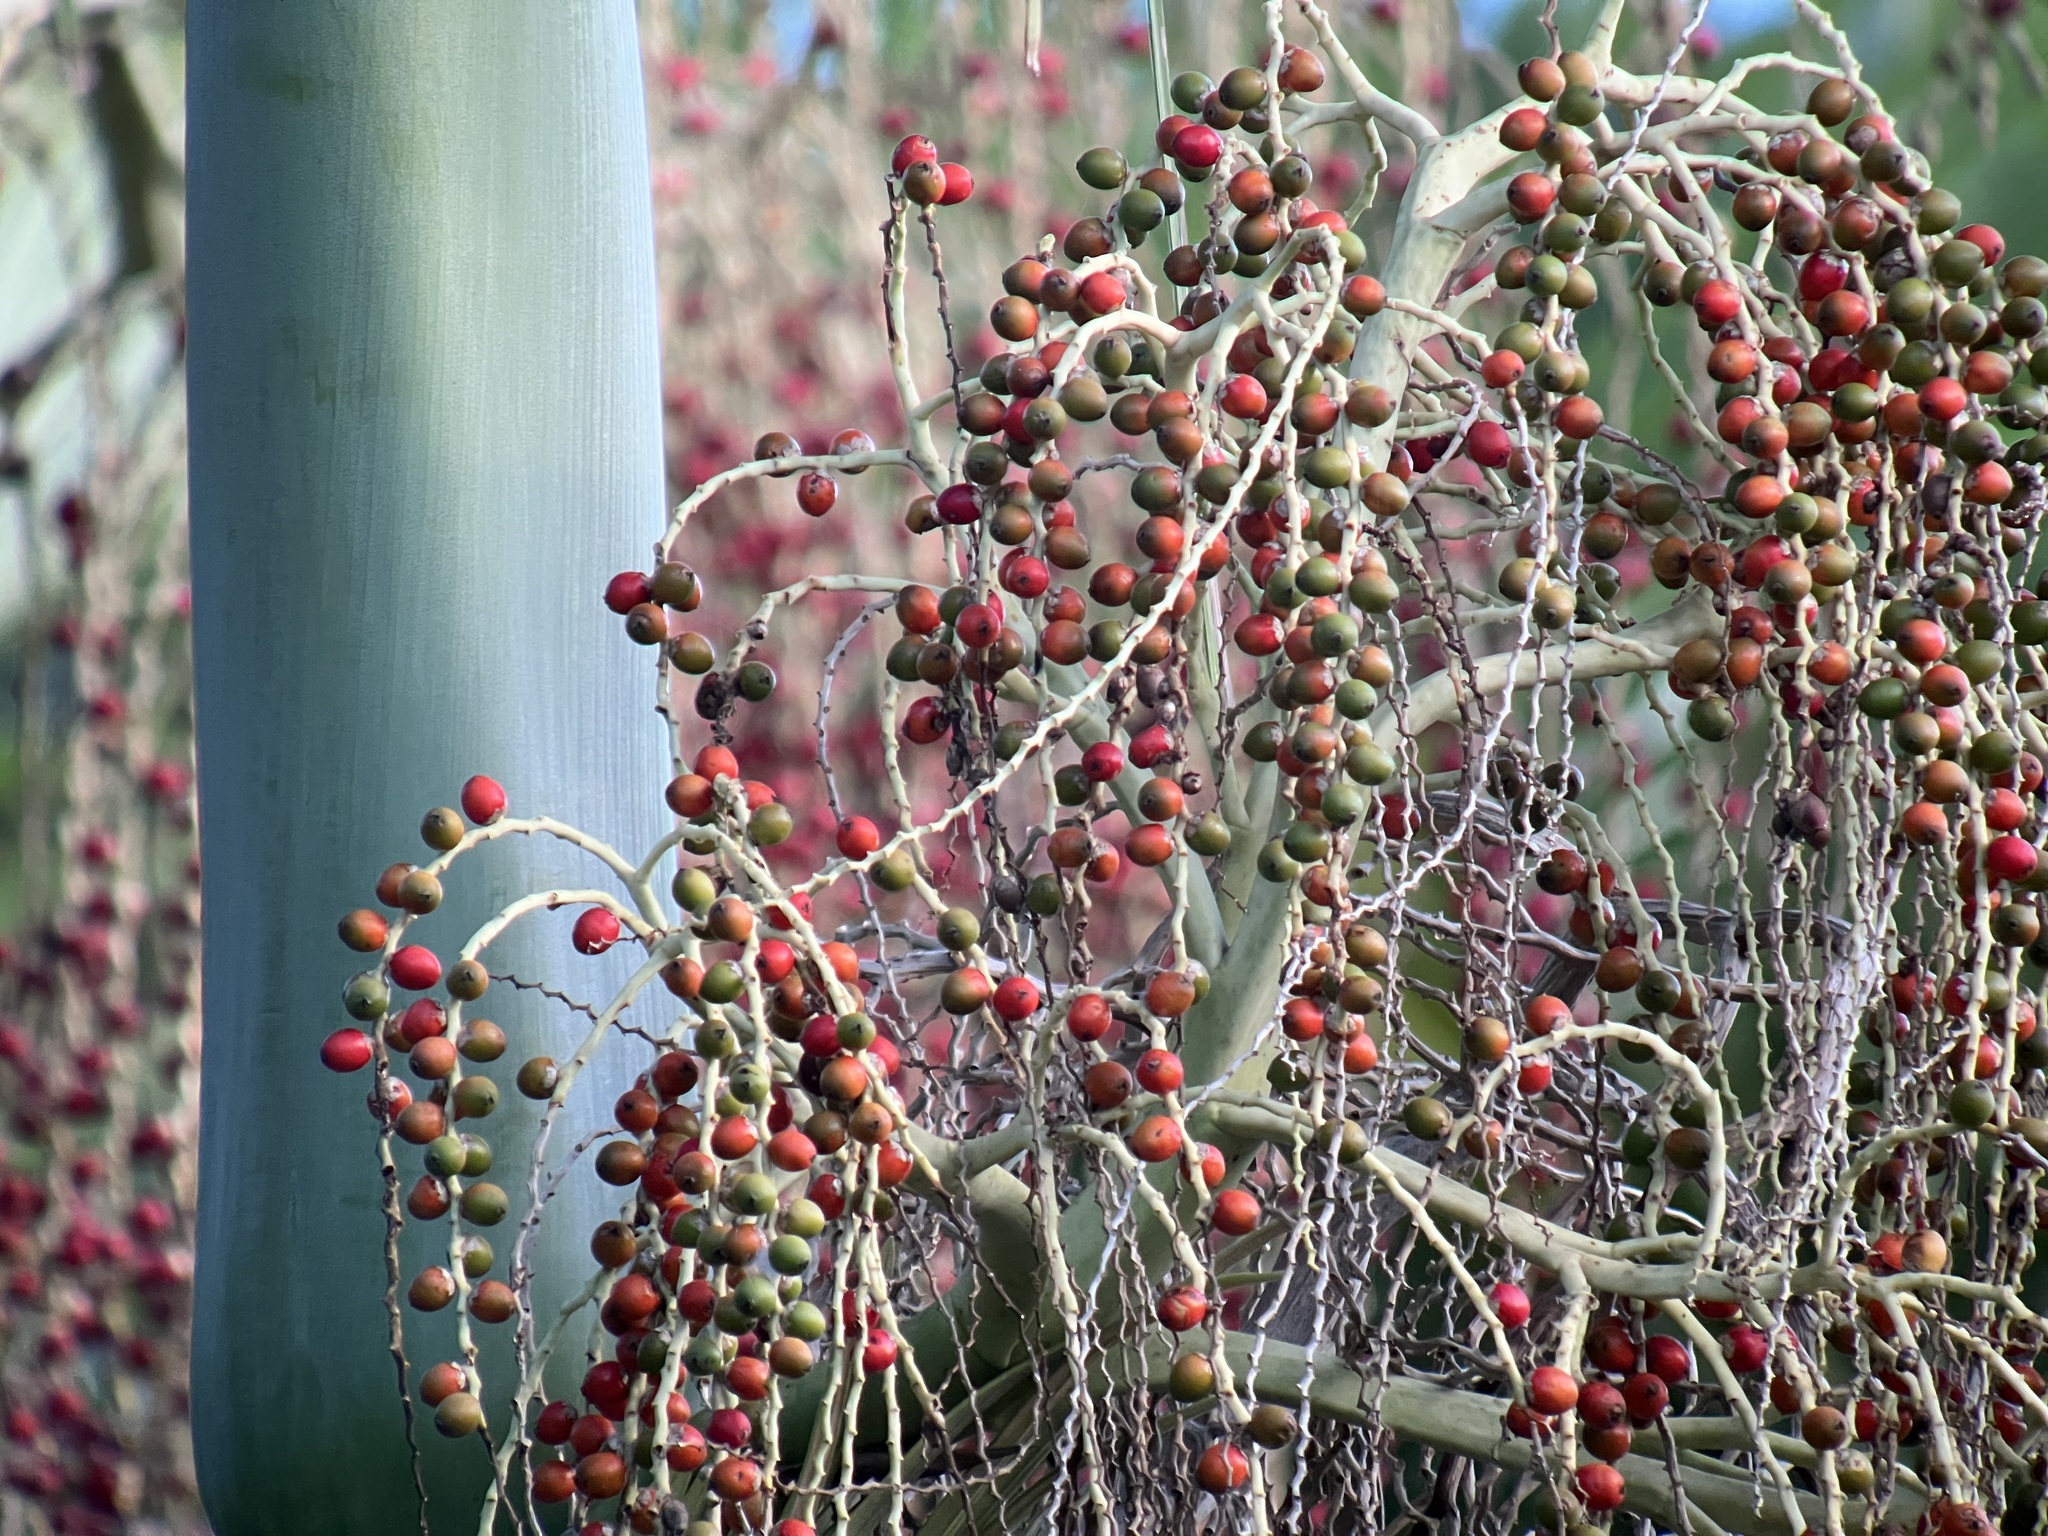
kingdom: Plantae
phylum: Tracheophyta
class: Liliopsida
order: Arecales
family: Arecaceae
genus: Archontophoenix
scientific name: Archontophoenix alexandrae
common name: Alexandra palm
